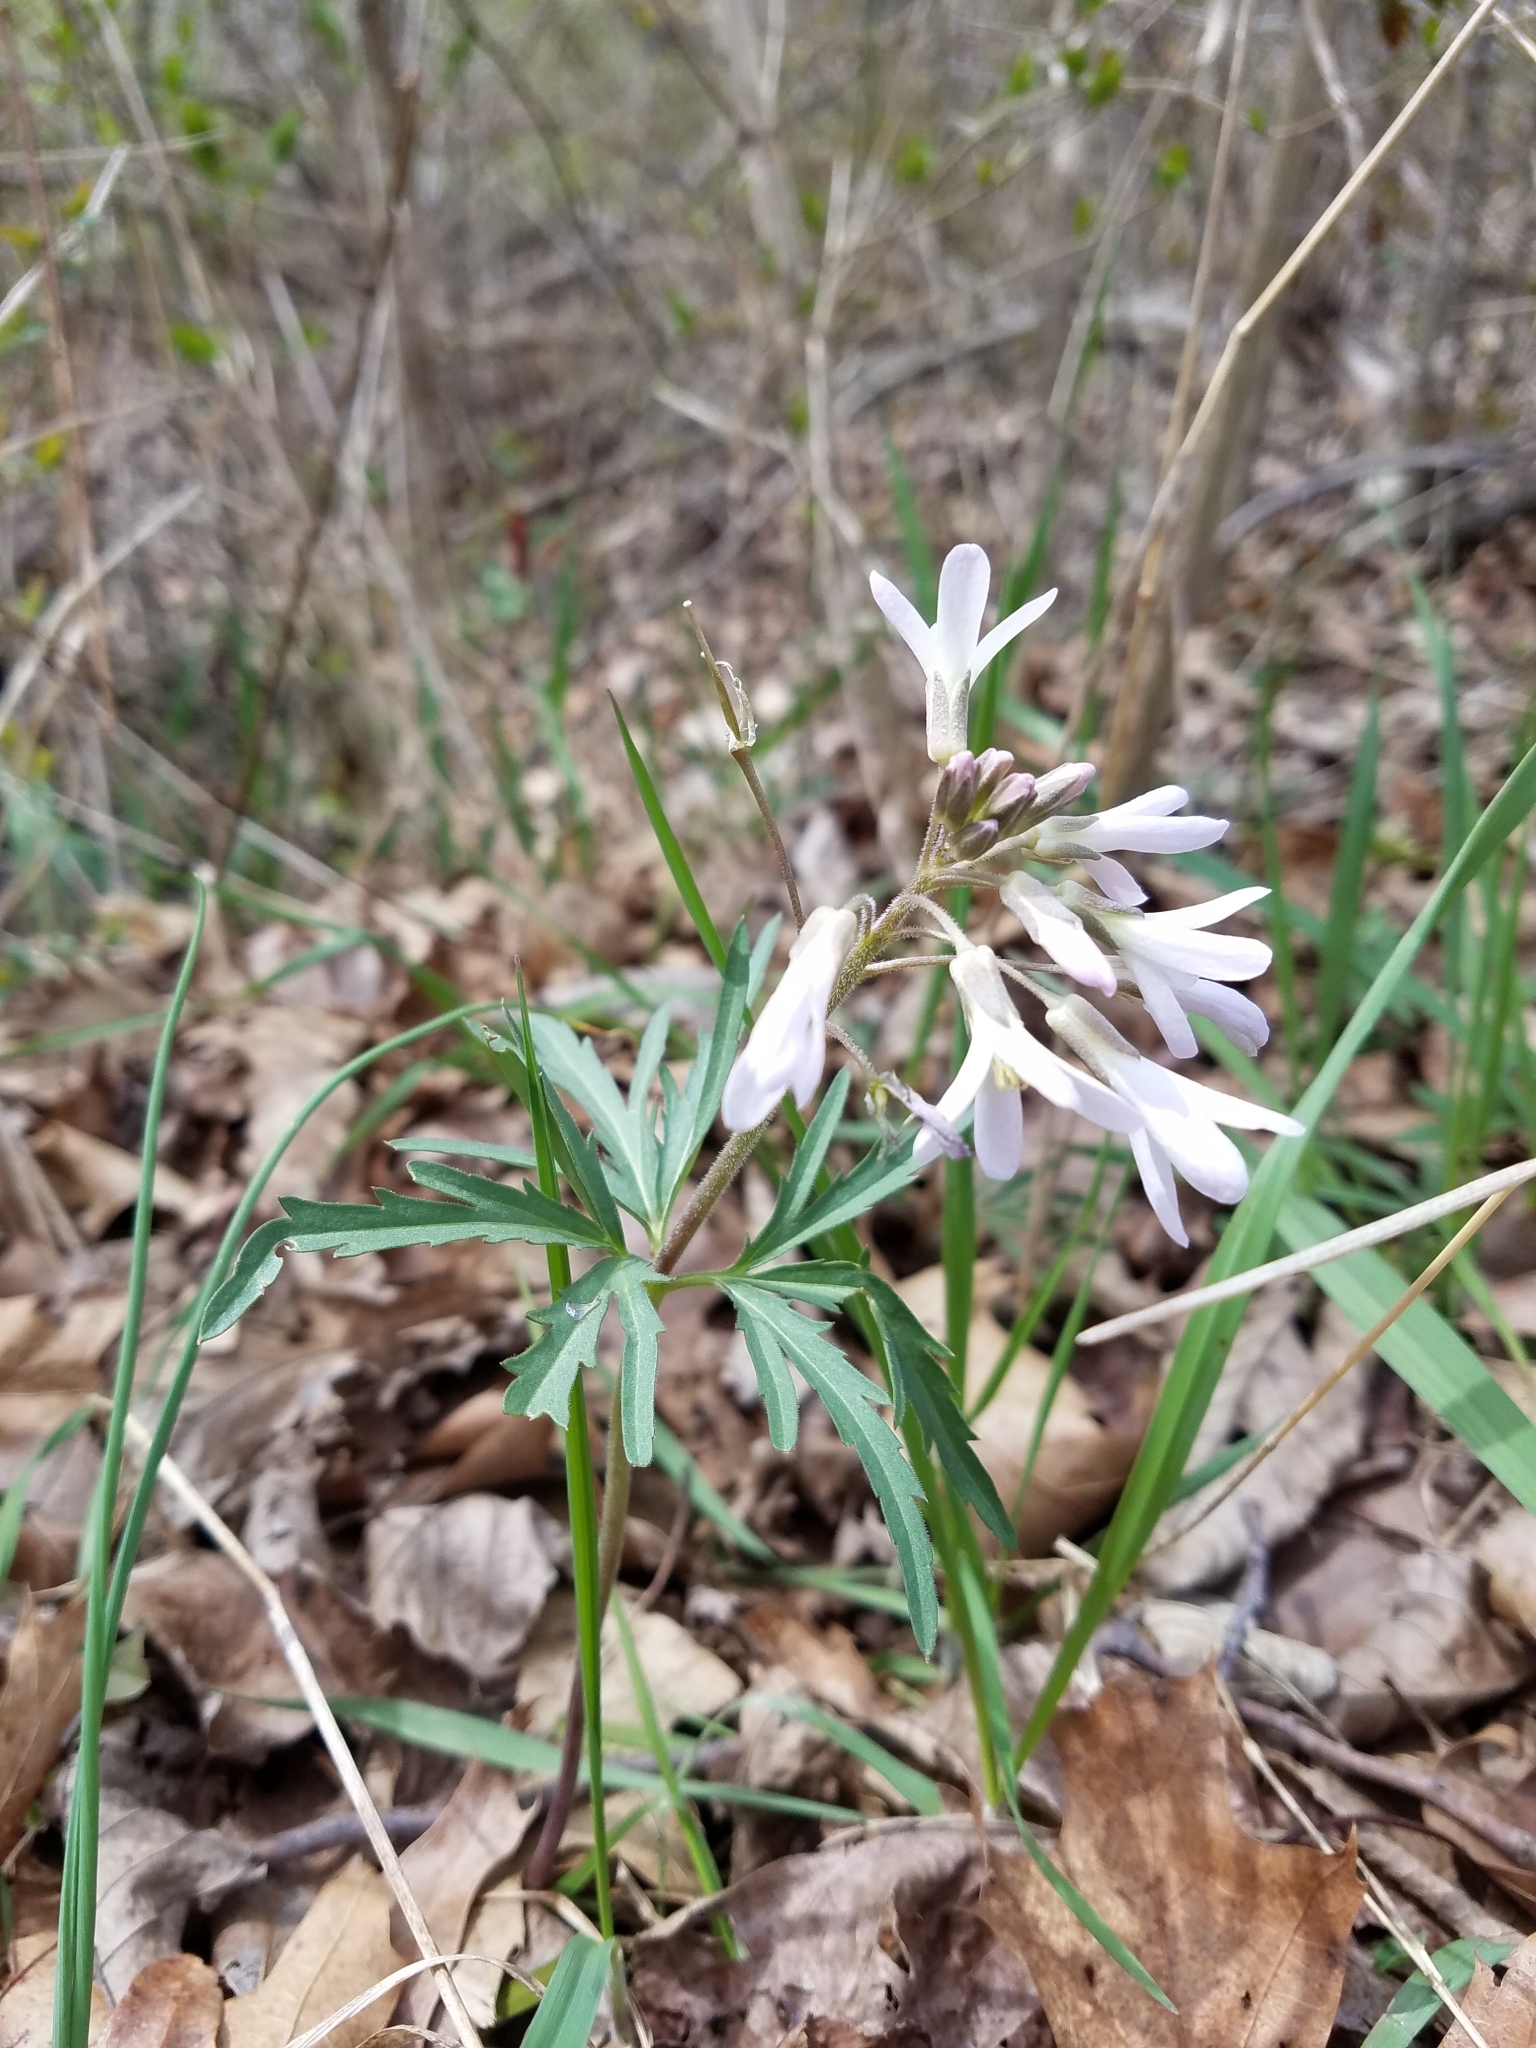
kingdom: Plantae
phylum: Tracheophyta
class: Magnoliopsida
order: Brassicales
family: Brassicaceae
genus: Cardamine
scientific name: Cardamine concatenata
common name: Cut-leaf toothcup
